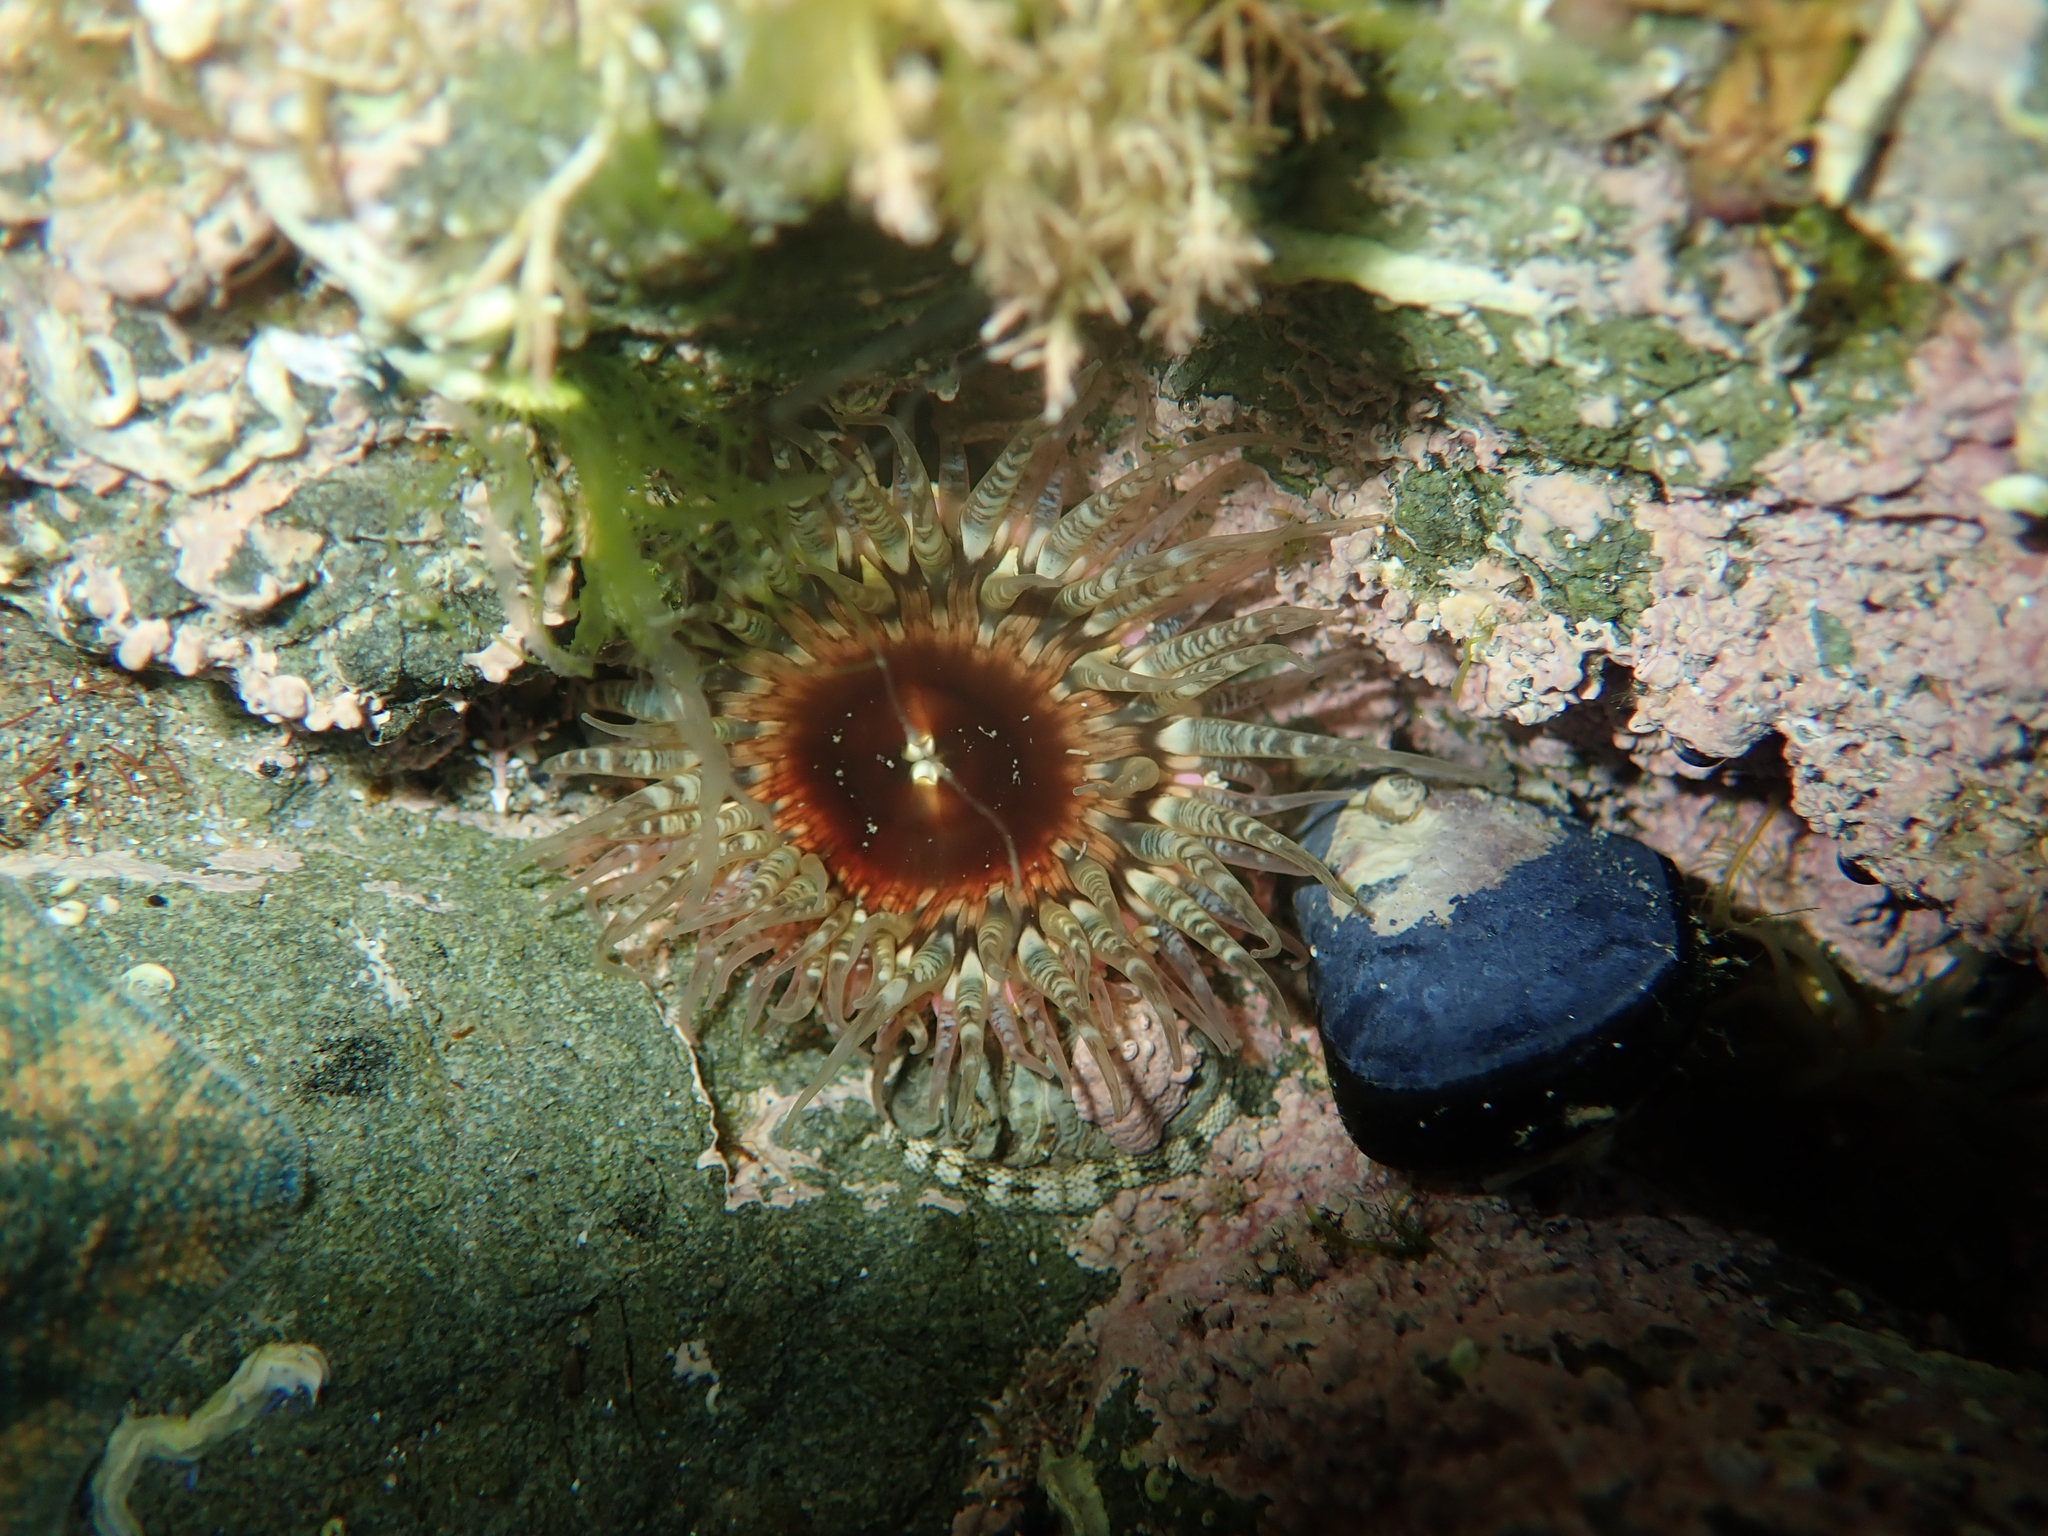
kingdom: Animalia
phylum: Cnidaria
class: Anthozoa
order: Actiniaria
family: Actiniidae
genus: Oulactis
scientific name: Oulactis muscosa
